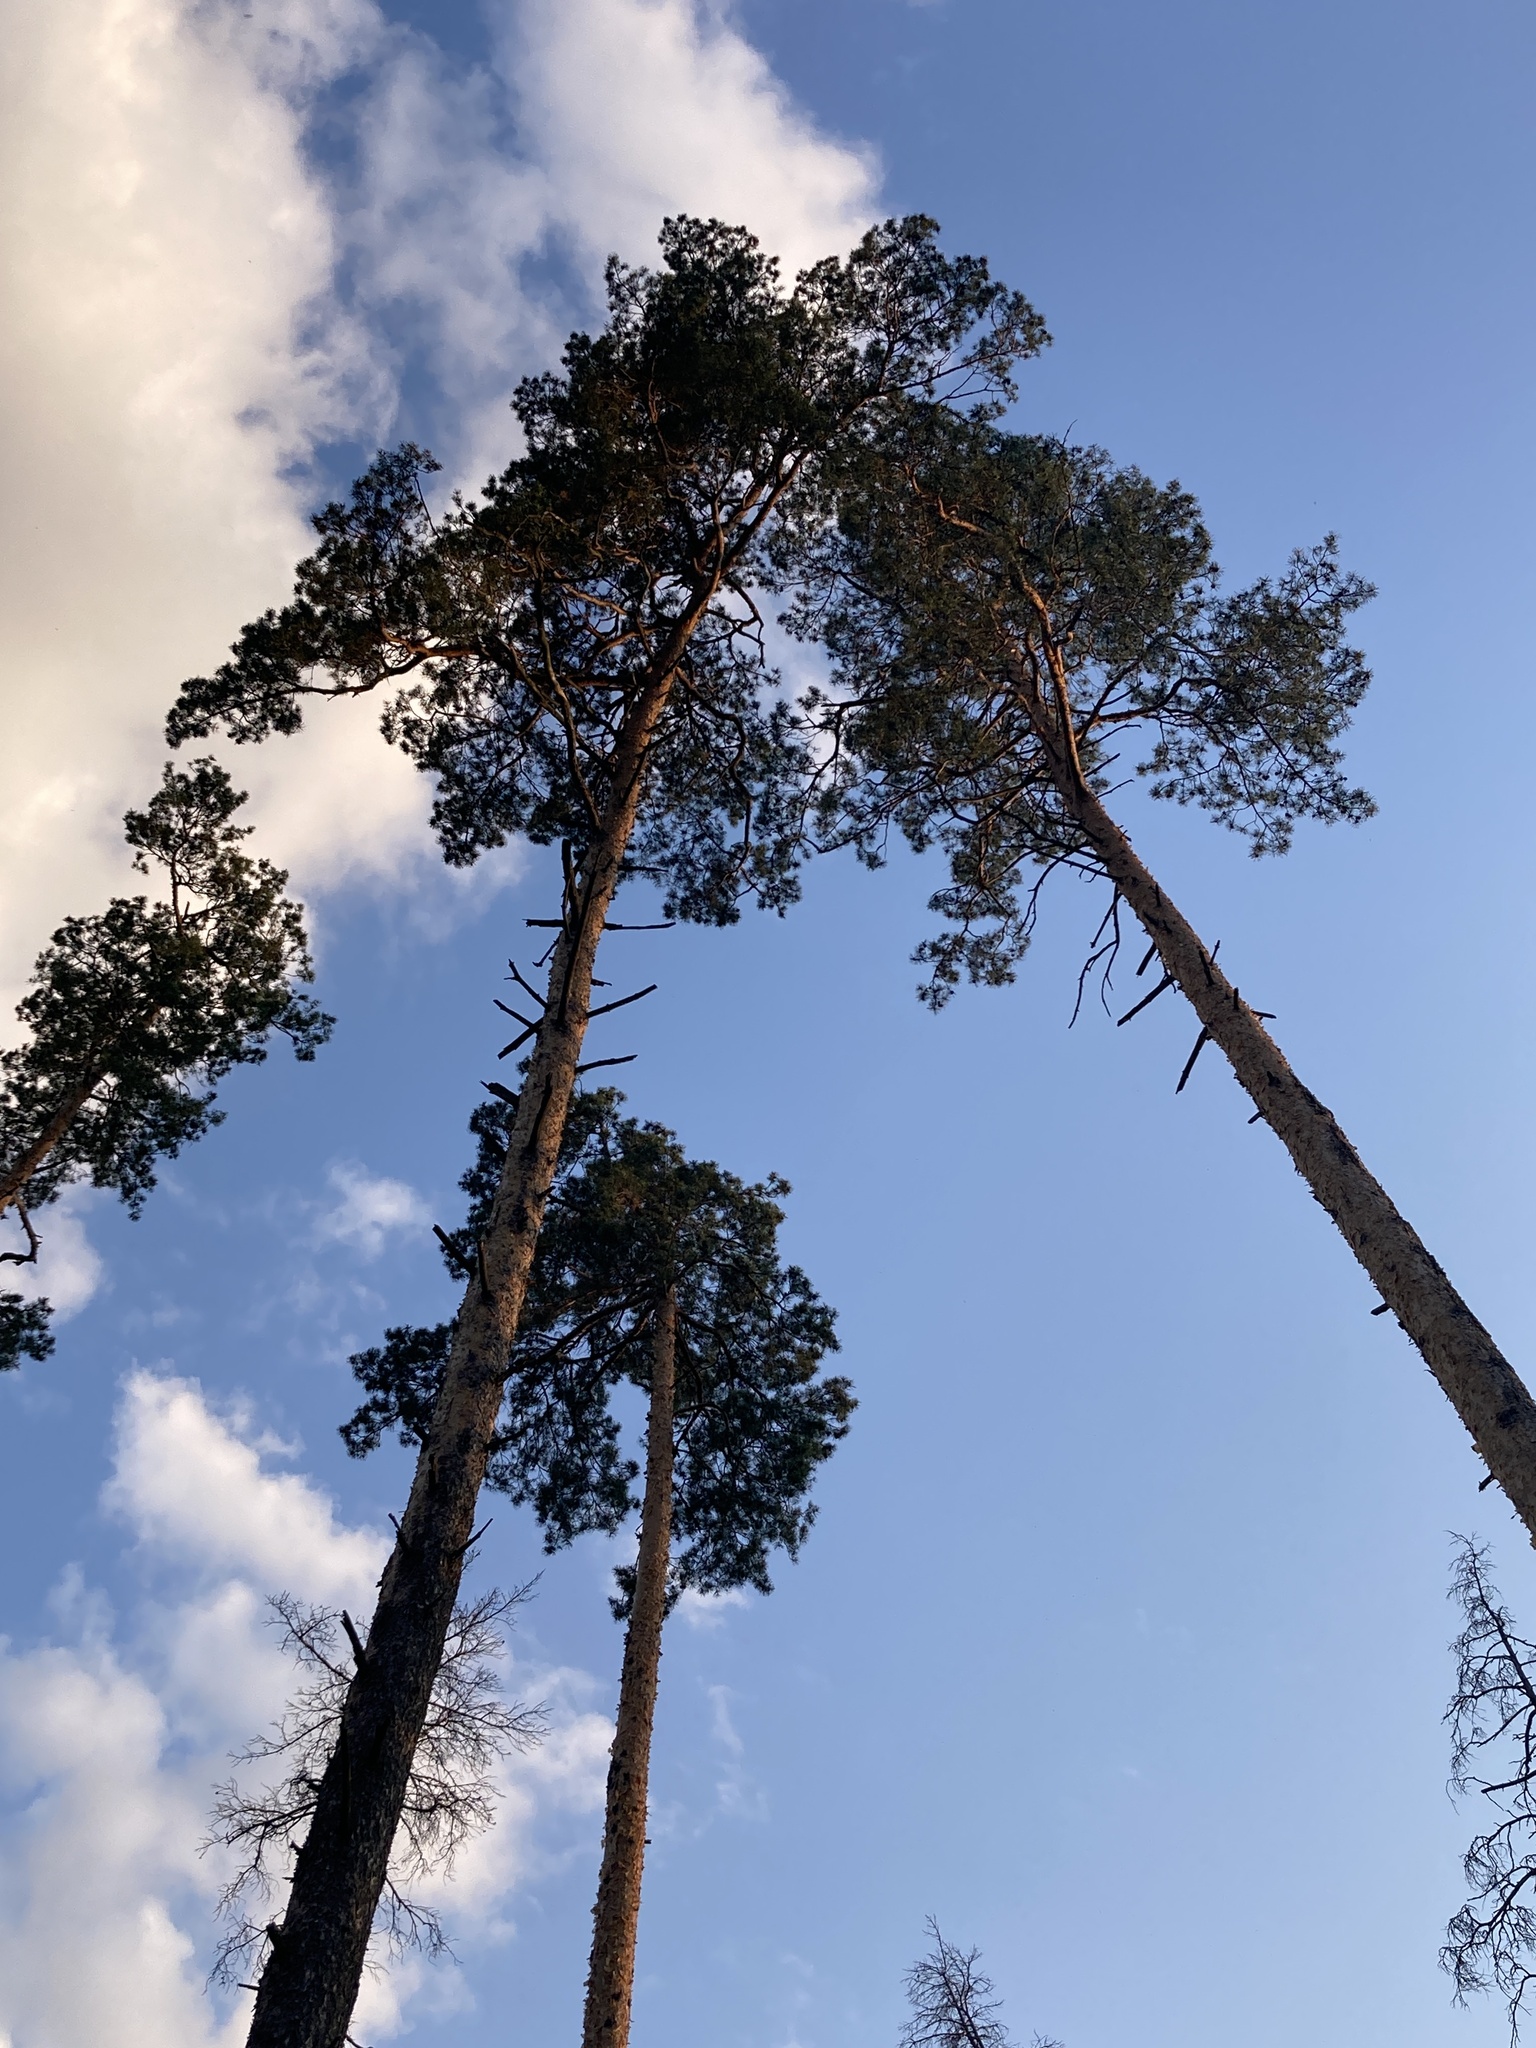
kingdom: Plantae
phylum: Tracheophyta
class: Pinopsida
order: Pinales
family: Pinaceae
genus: Pinus
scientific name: Pinus sylvestris
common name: Scots pine
